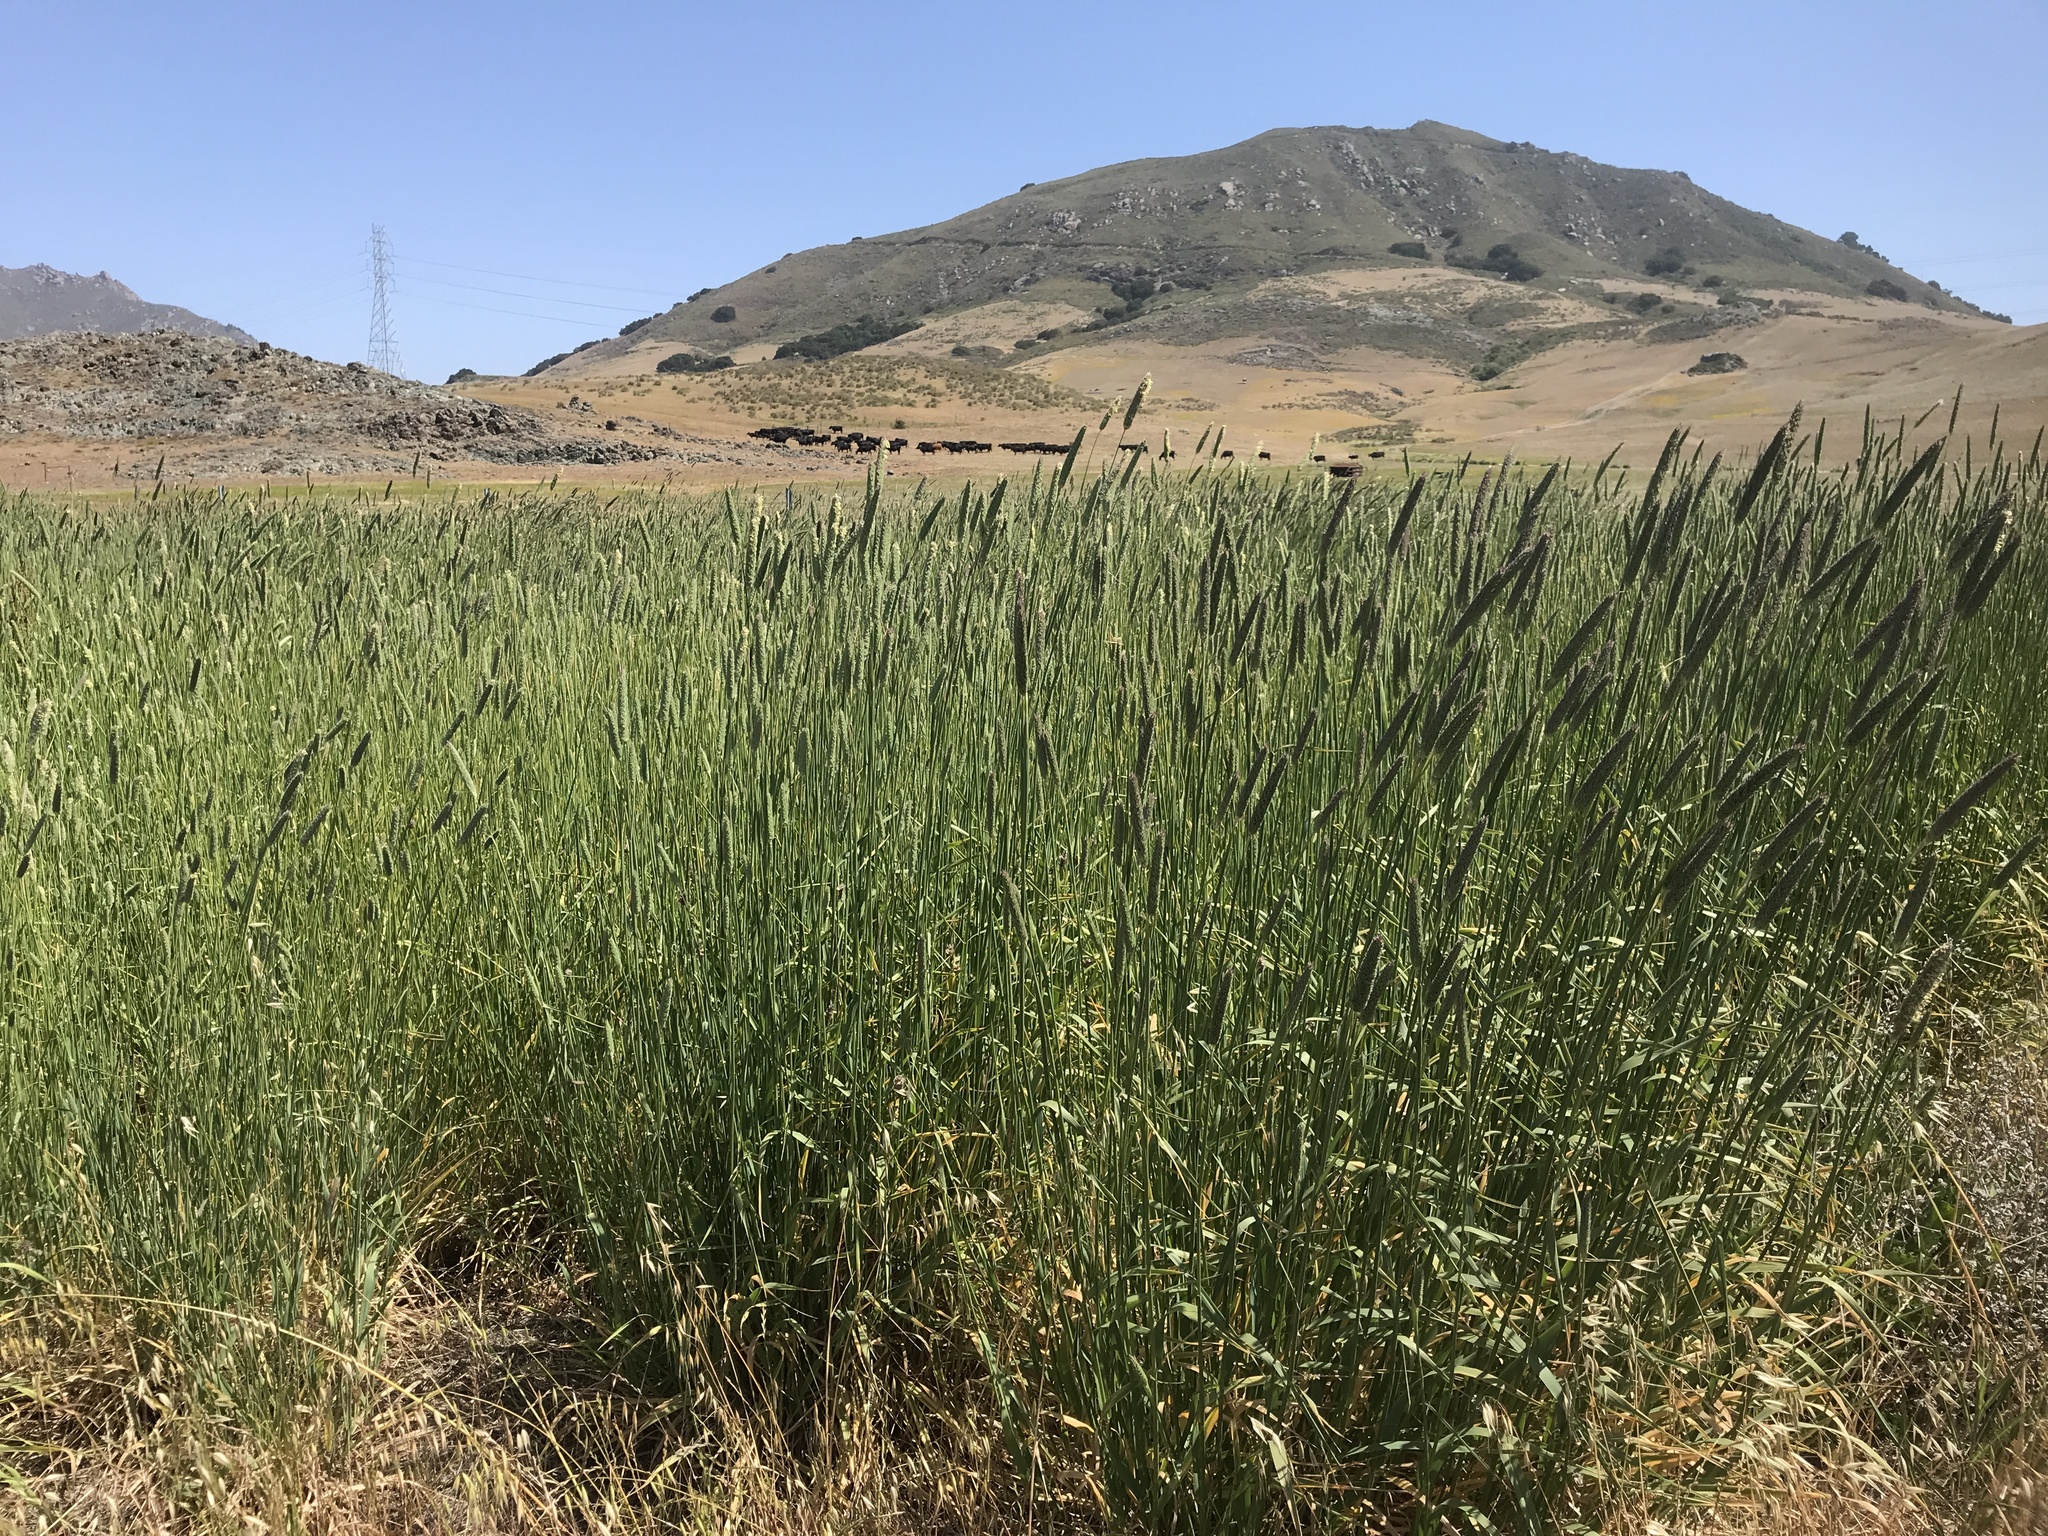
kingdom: Plantae
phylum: Tracheophyta
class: Liliopsida
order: Poales
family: Poaceae
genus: Phalaris
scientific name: Phalaris aquatica
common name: Bulbous canary-grass
